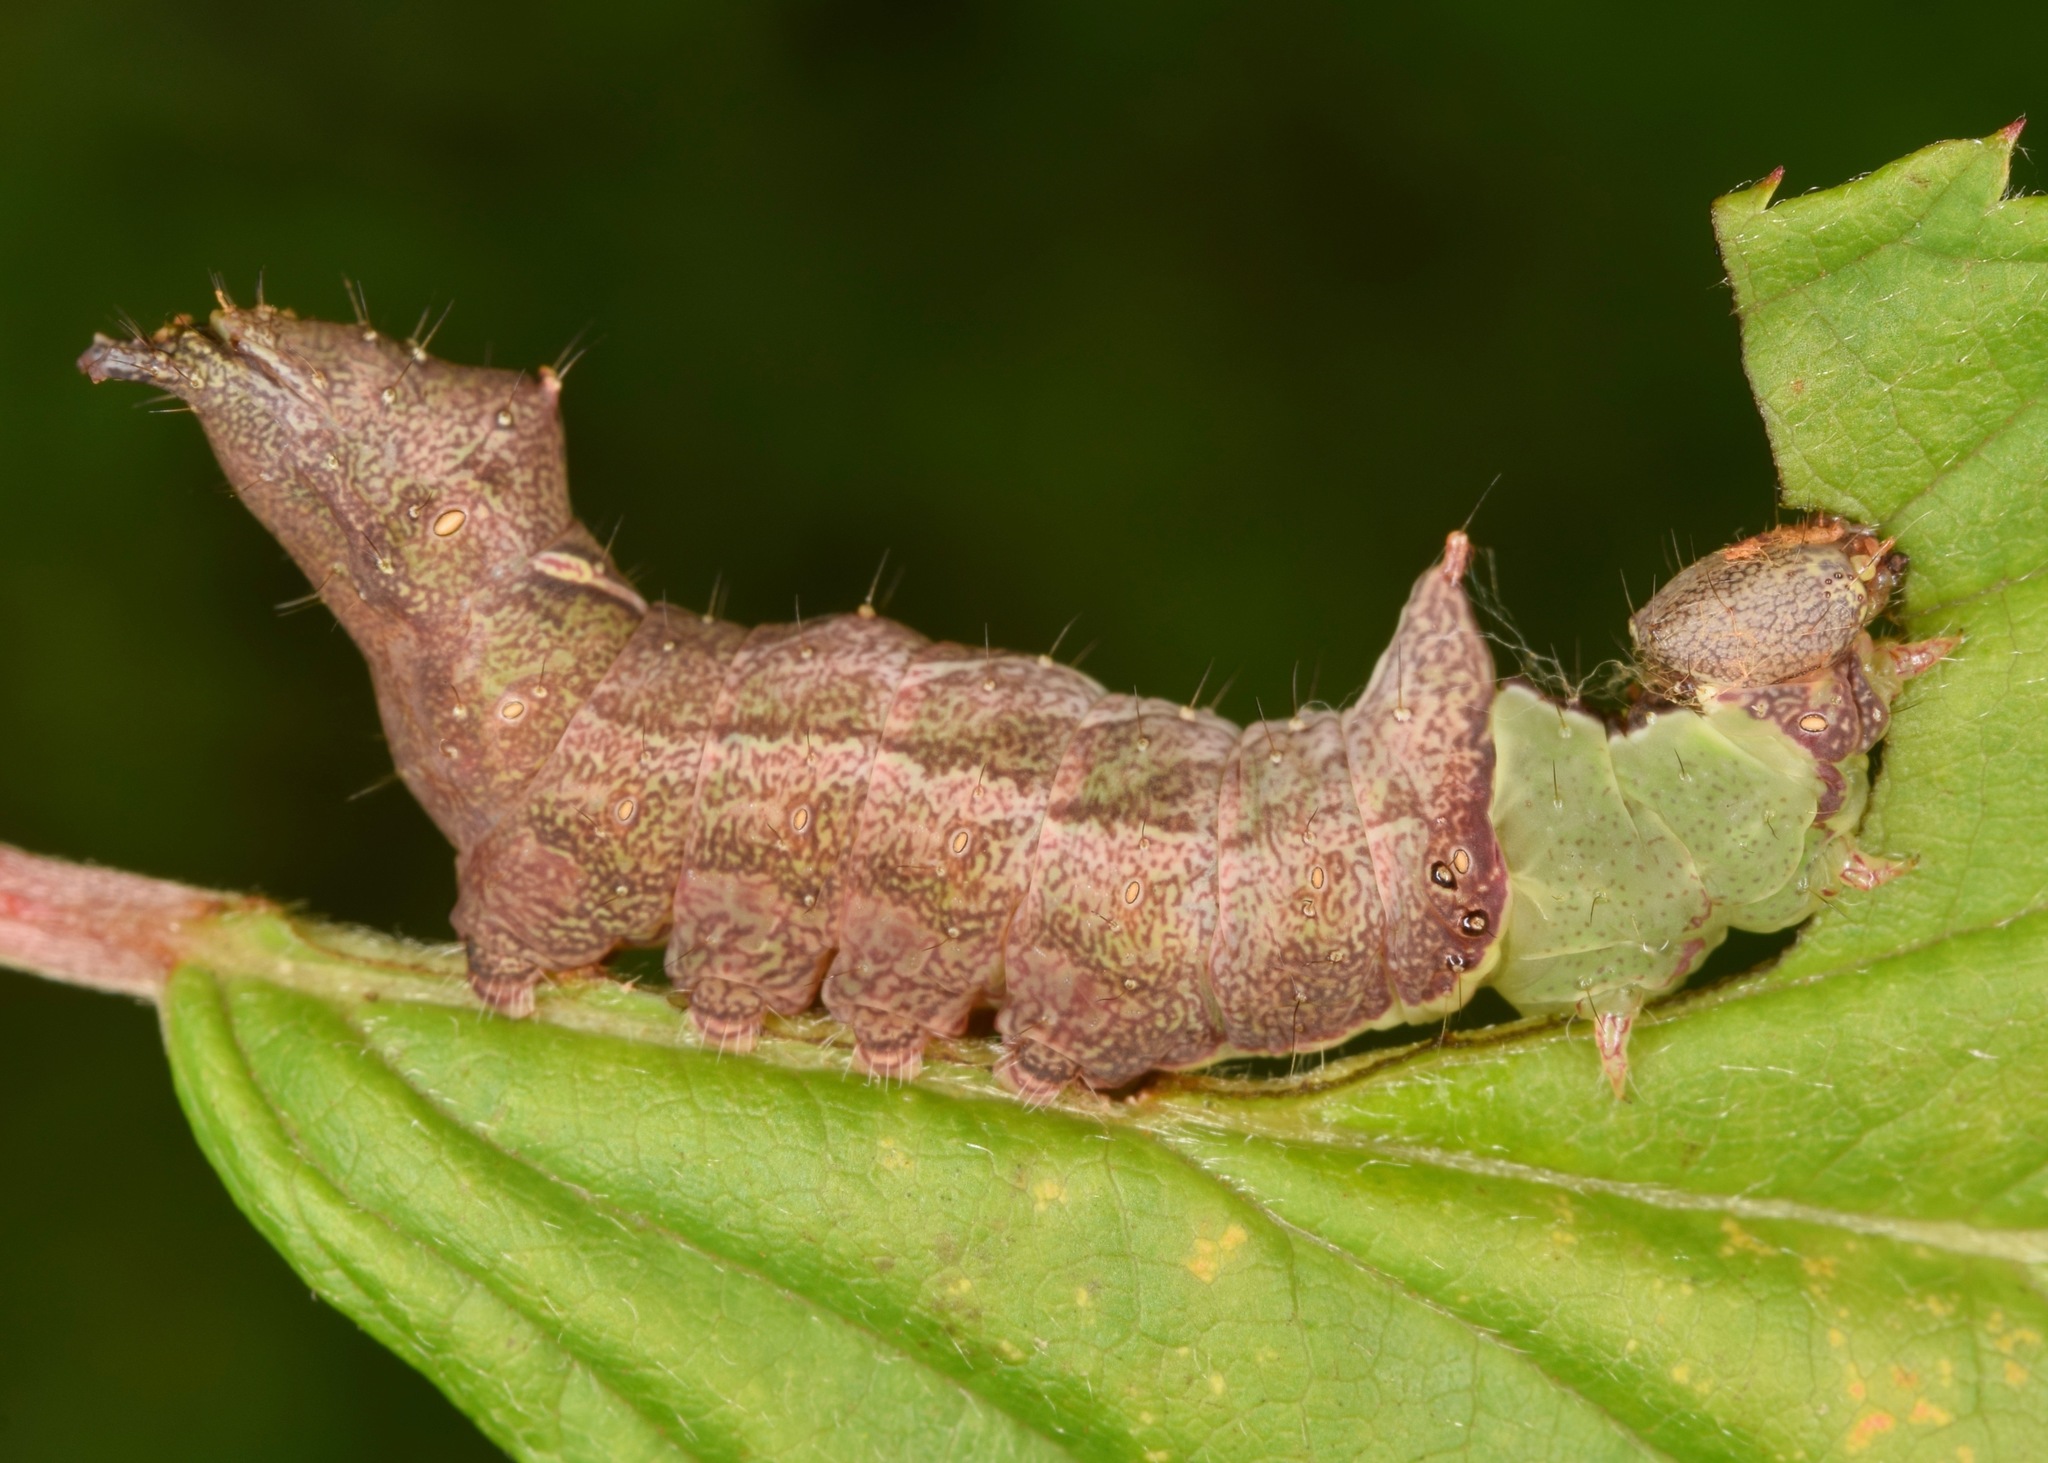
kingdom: Animalia
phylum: Arthropoda
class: Insecta
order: Lepidoptera
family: Notodontidae
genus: Schizura
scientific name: Schizura
